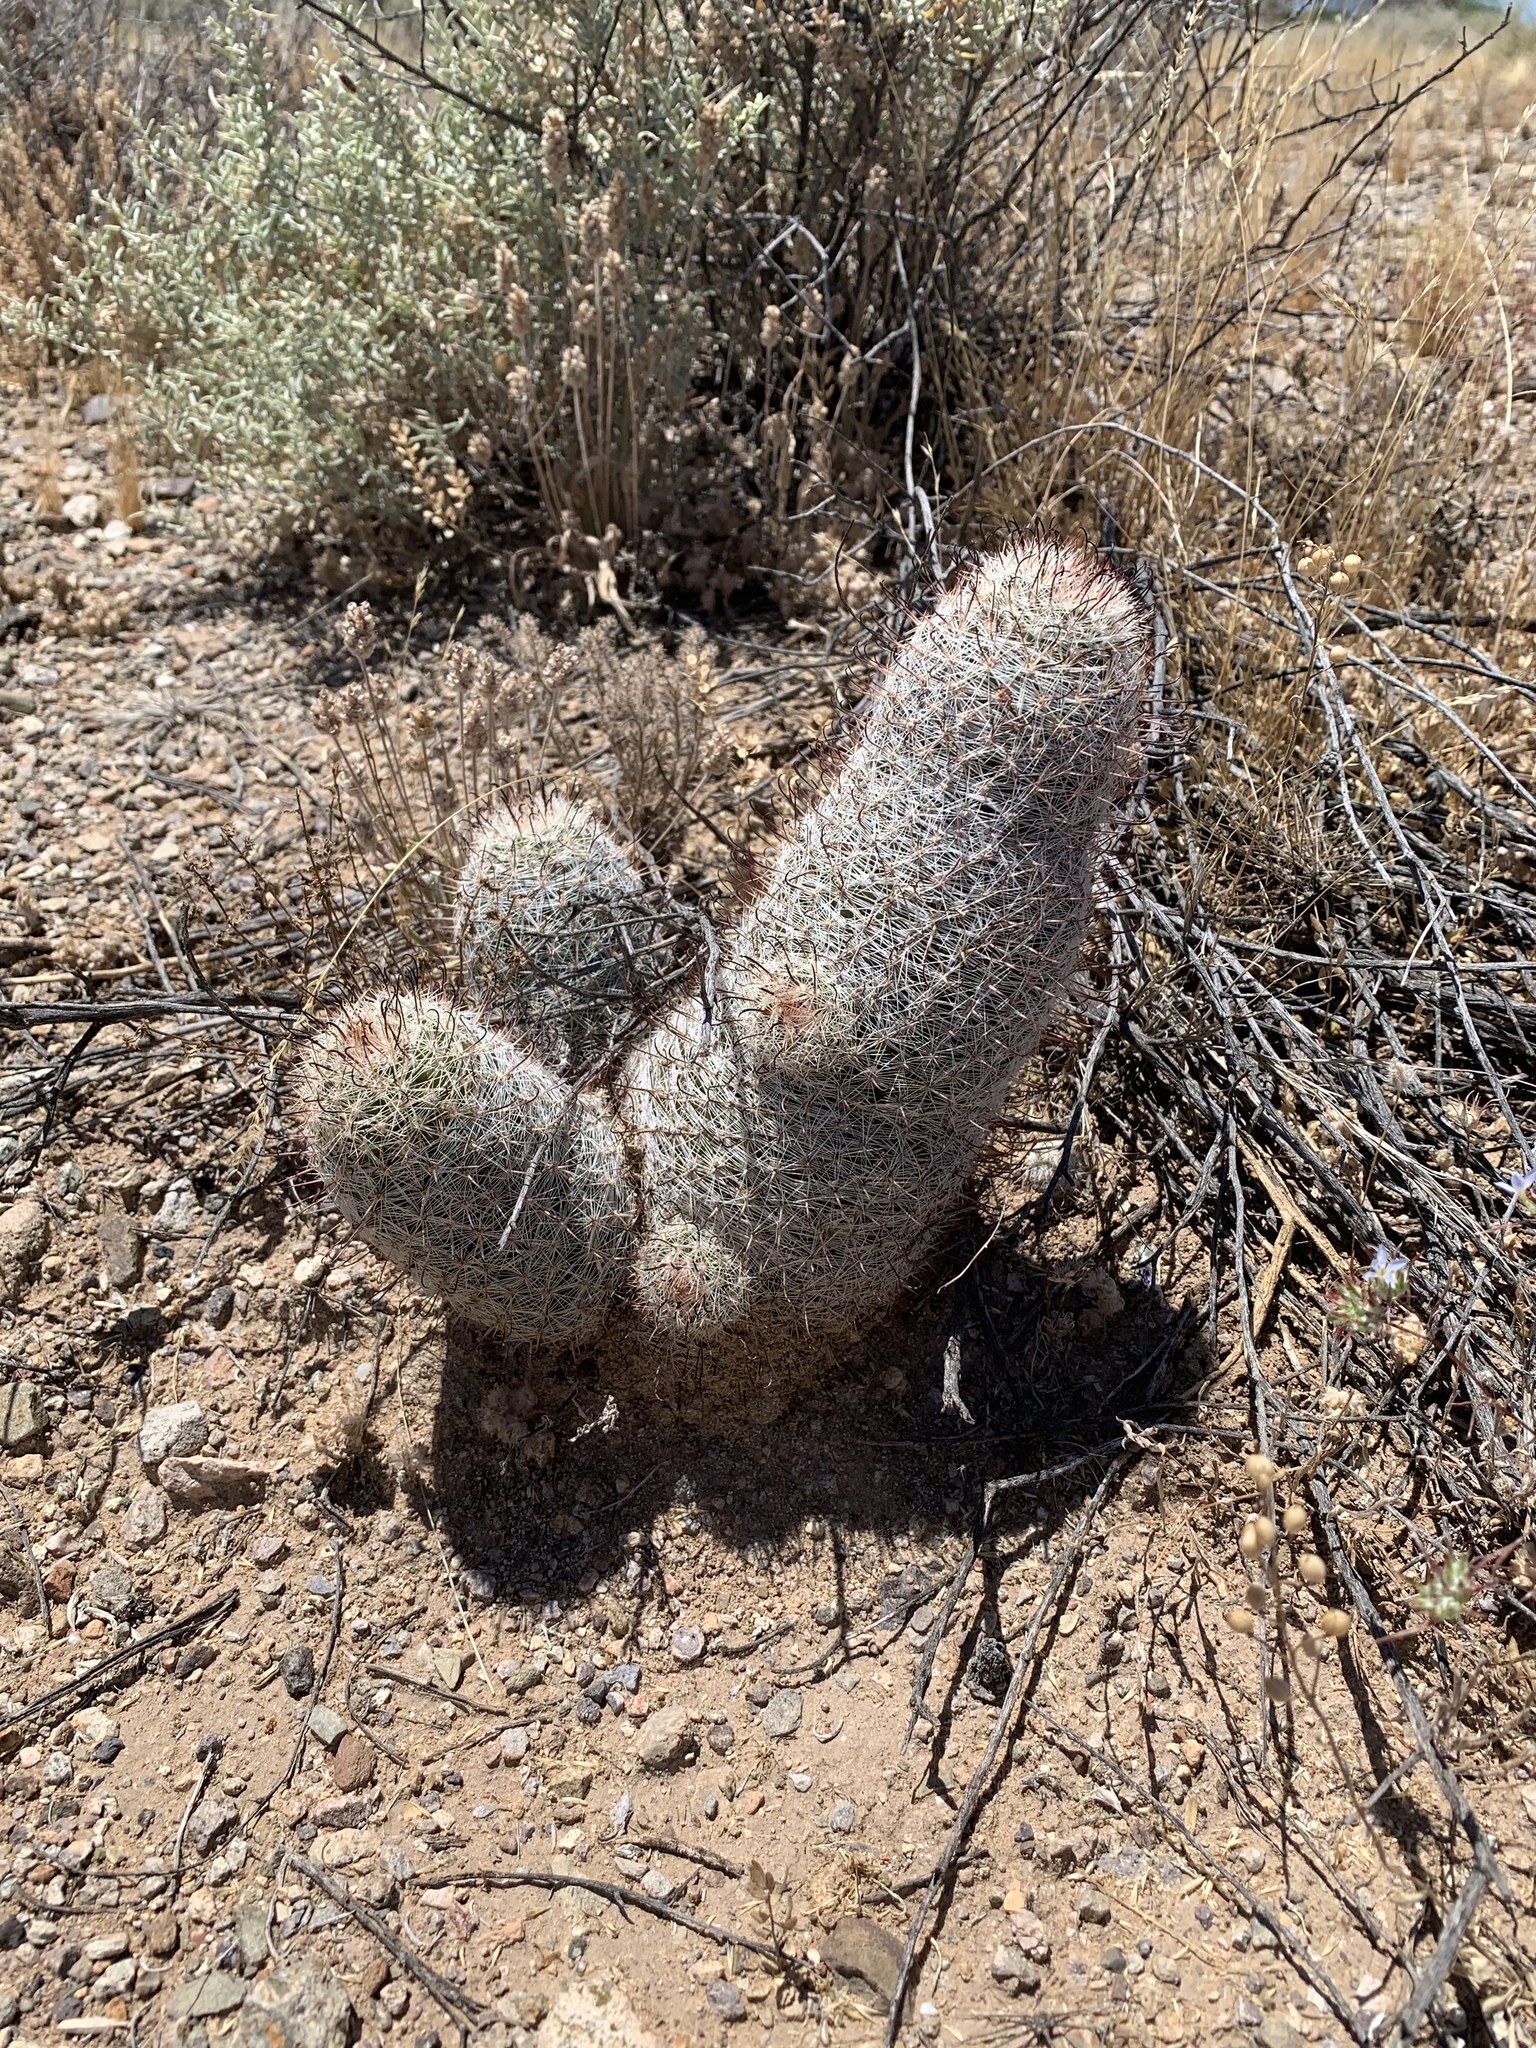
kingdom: Plantae
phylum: Tracheophyta
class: Magnoliopsida
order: Caryophyllales
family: Cactaceae
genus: Cochemiea
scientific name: Cochemiea grahamii
